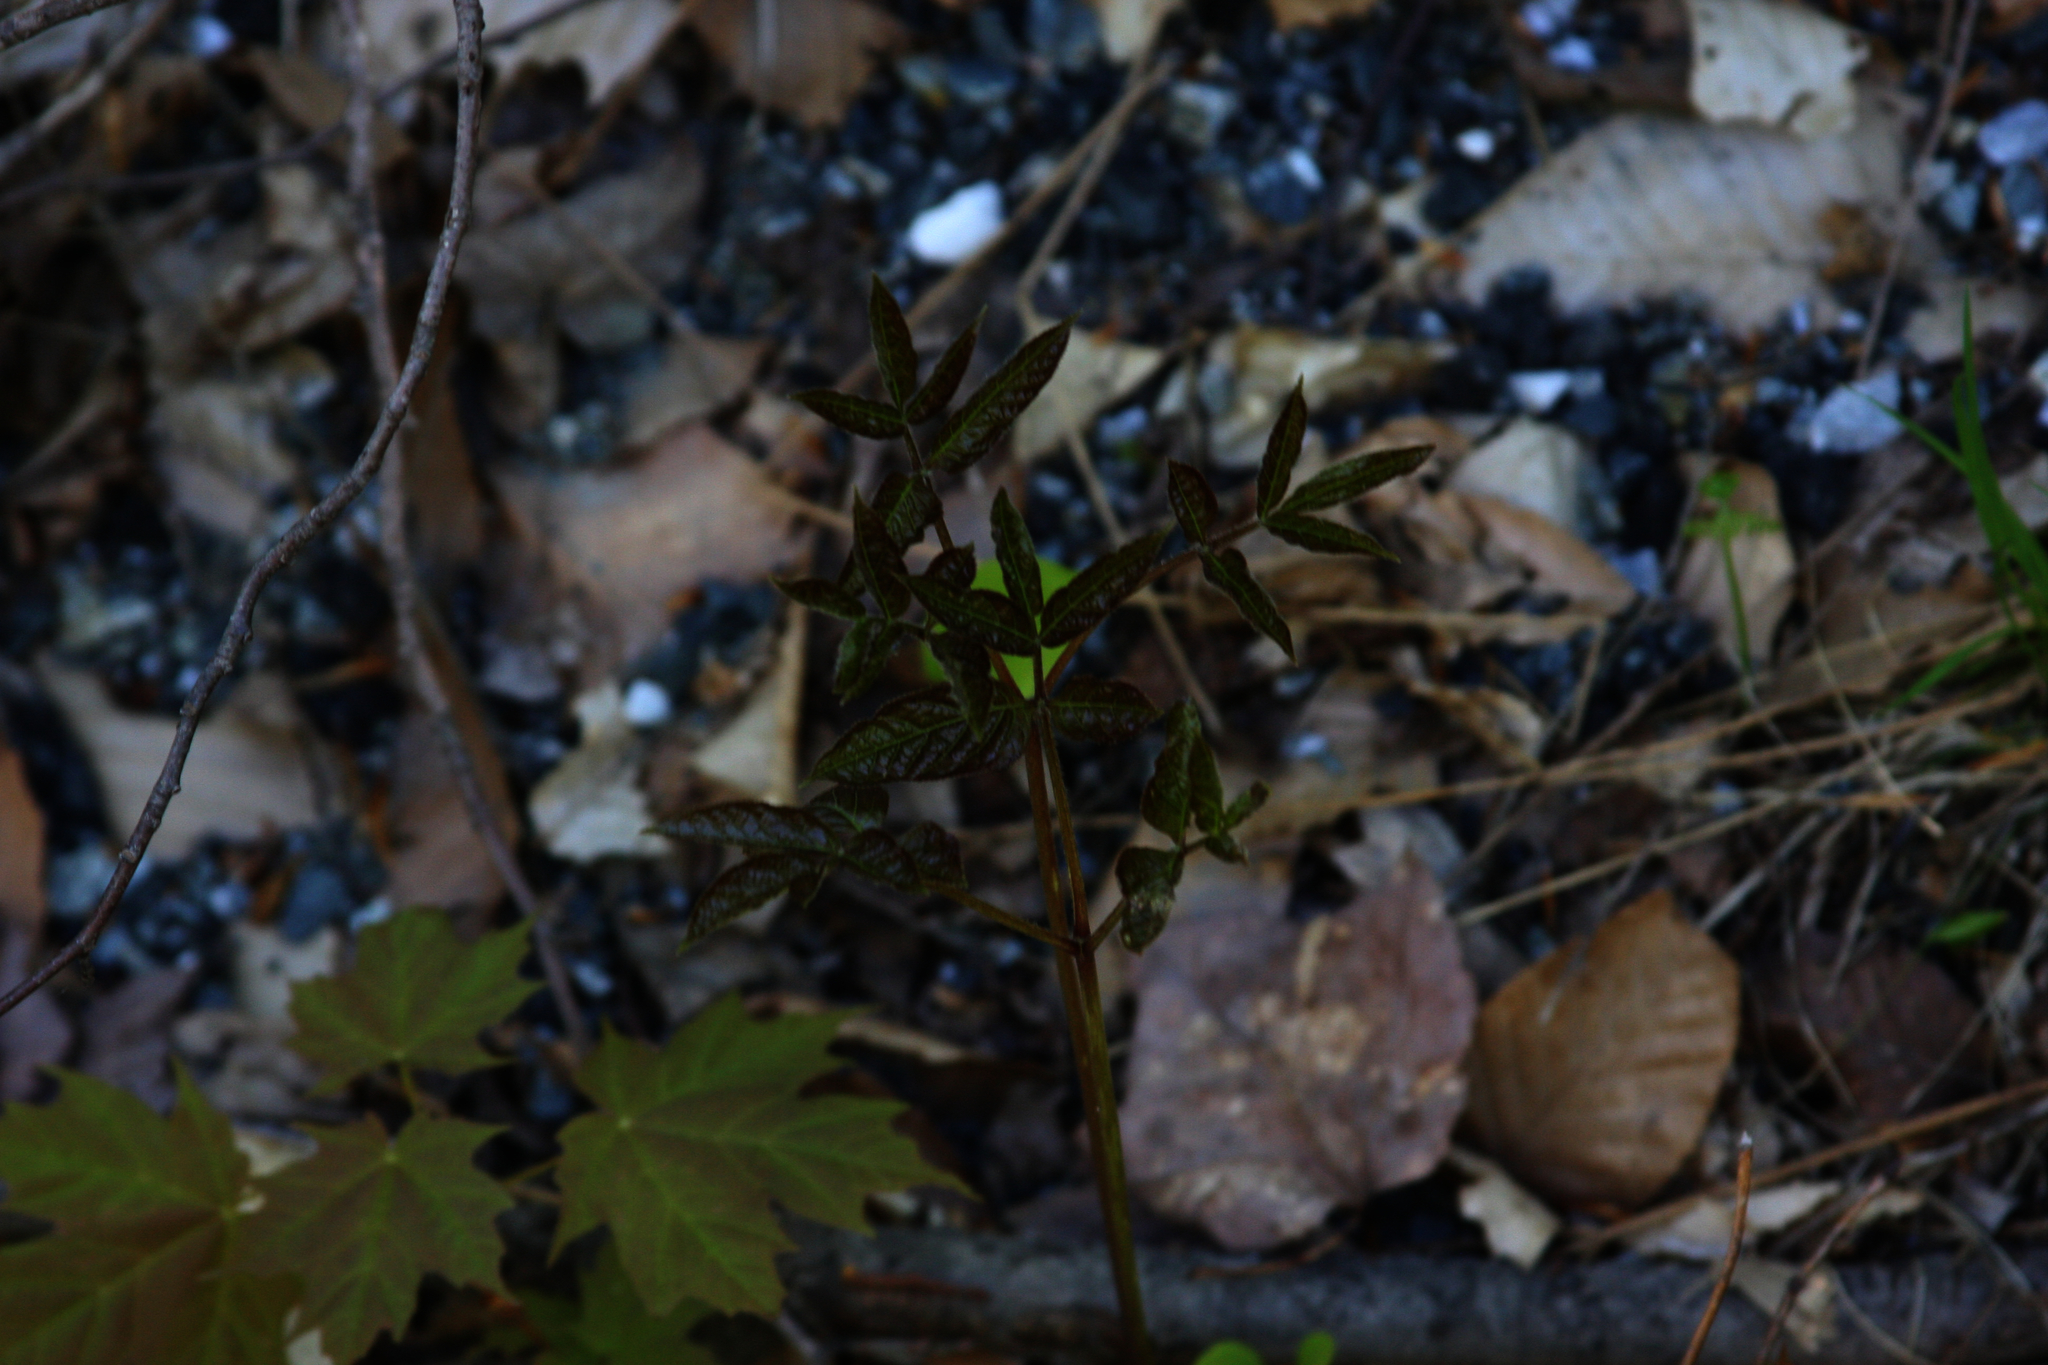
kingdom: Plantae
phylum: Tracheophyta
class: Magnoliopsida
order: Apiales
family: Araliaceae
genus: Aralia
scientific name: Aralia nudicaulis
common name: Wild sarsaparilla
